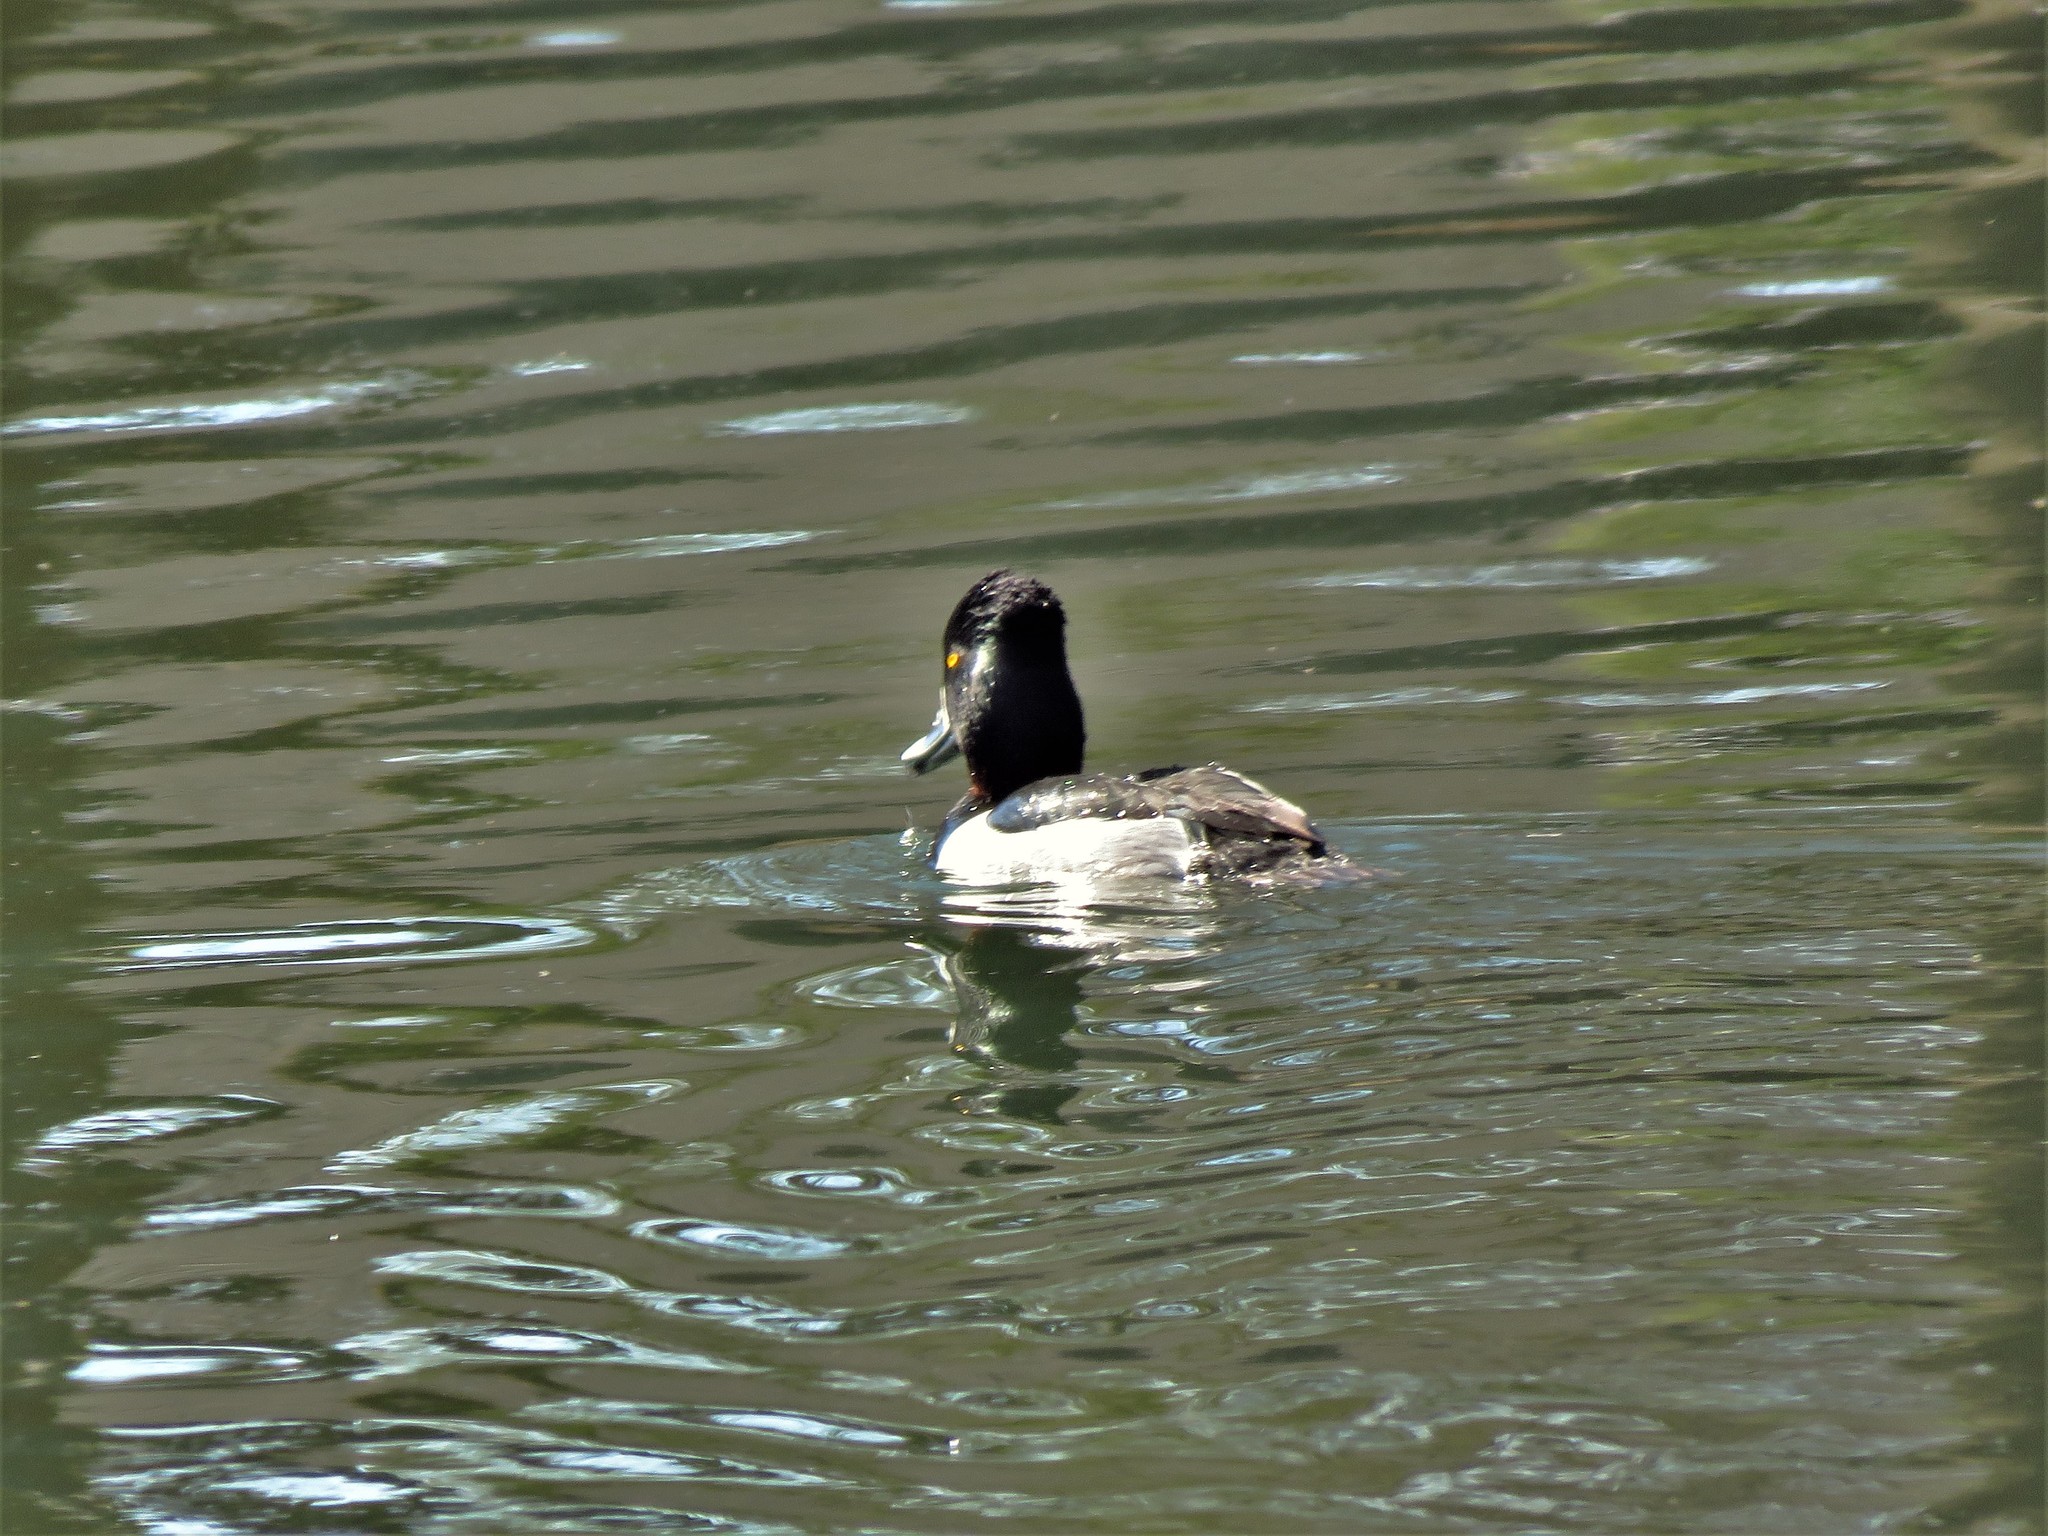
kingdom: Animalia
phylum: Chordata
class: Aves
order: Anseriformes
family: Anatidae
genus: Aythya
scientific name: Aythya collaris
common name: Ring-necked duck
